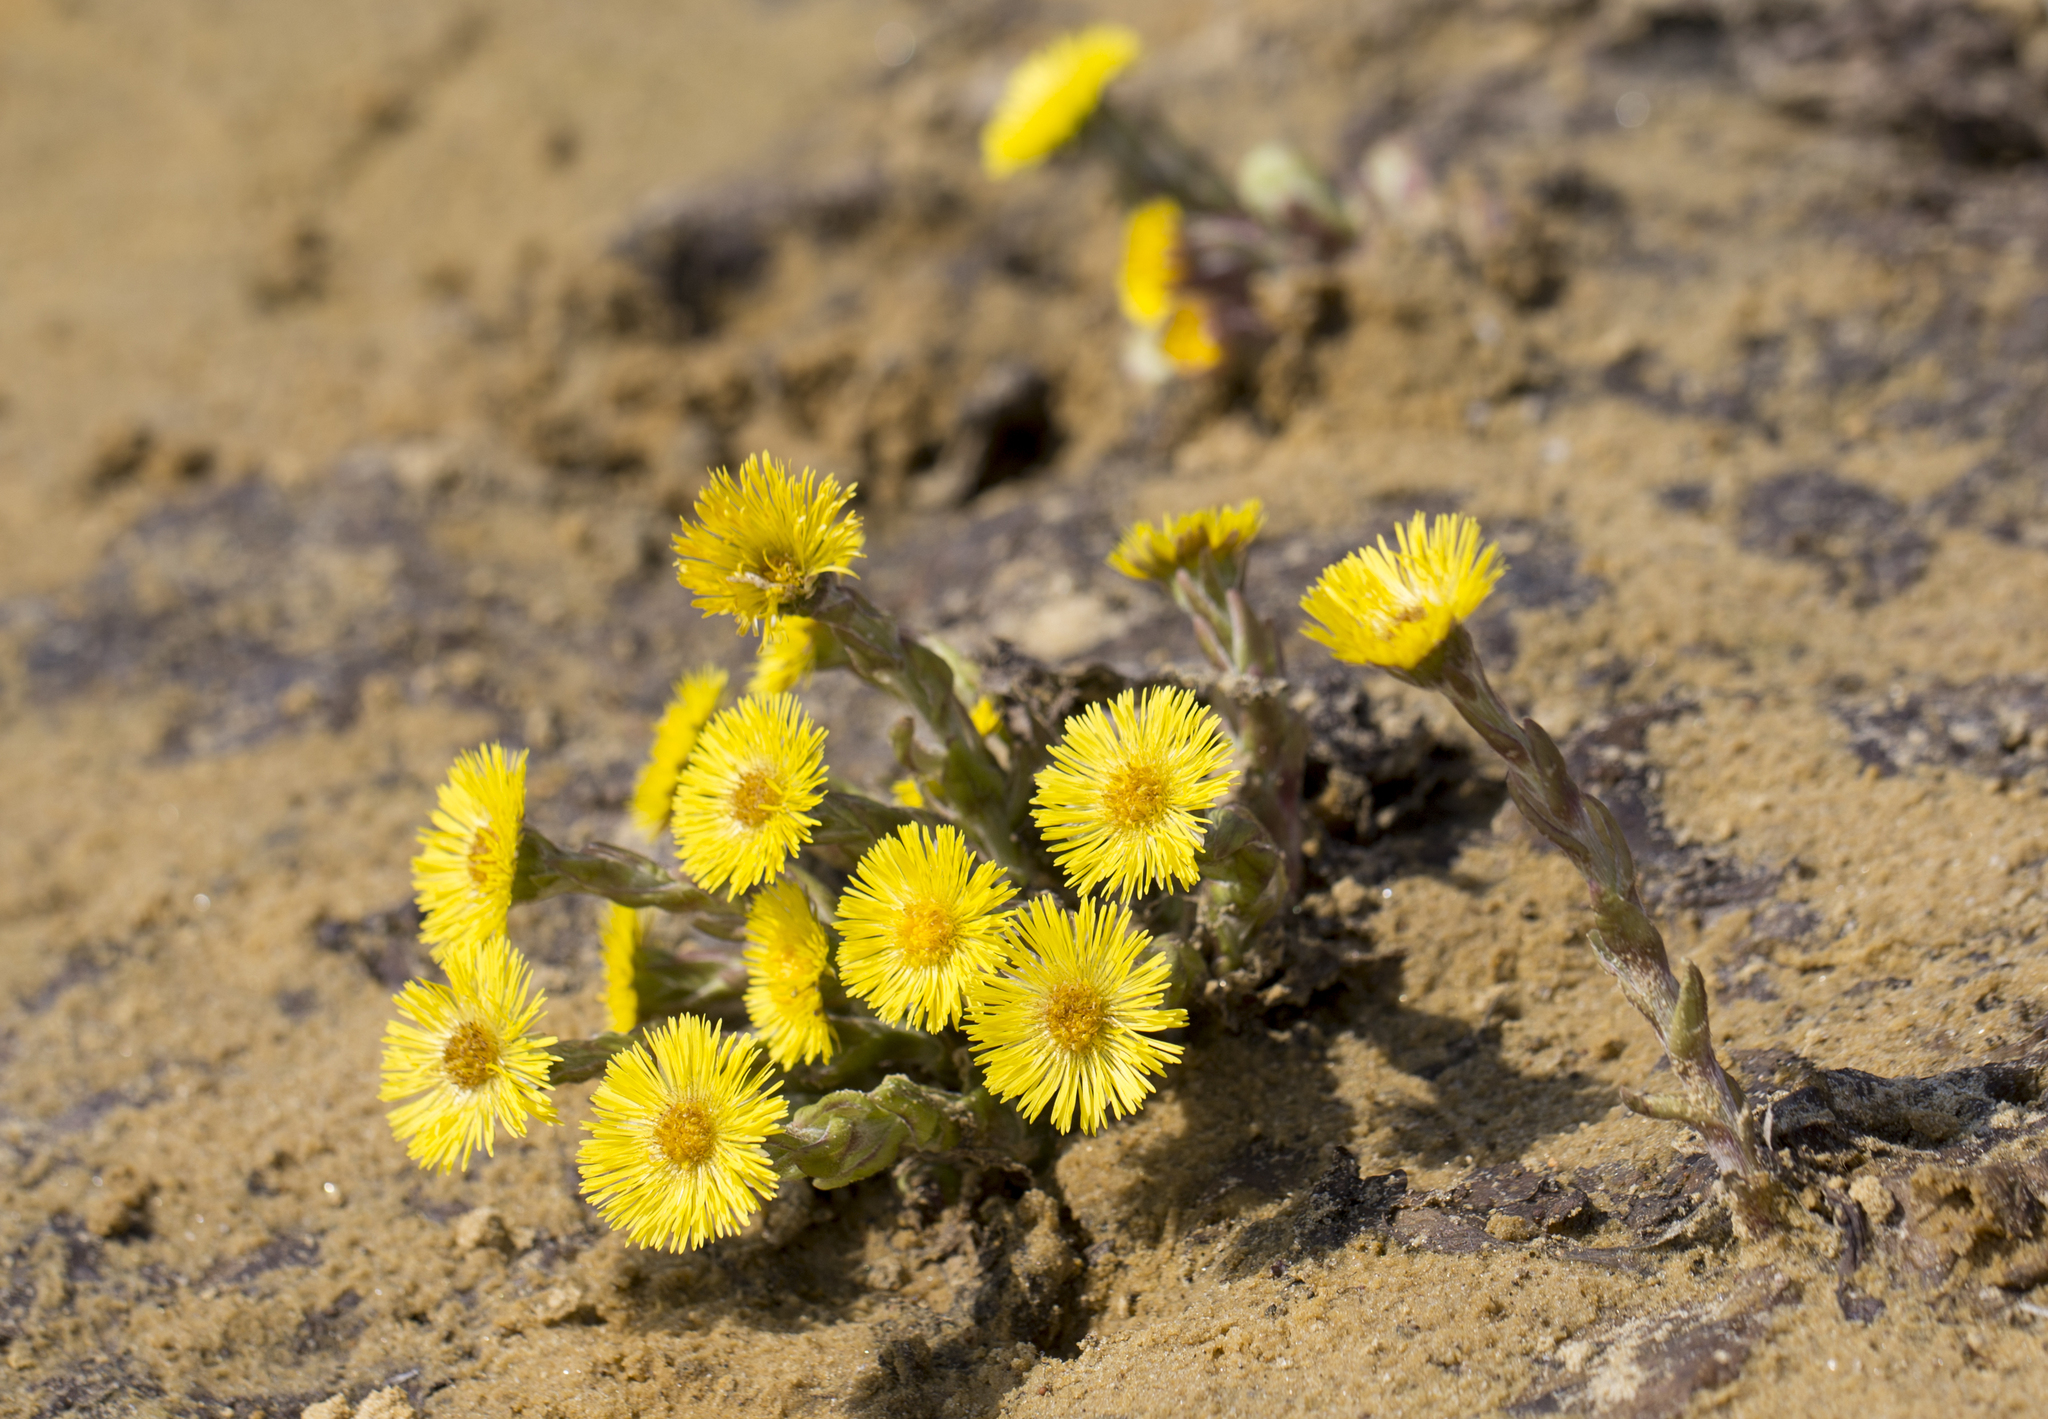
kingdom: Plantae
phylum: Tracheophyta
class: Magnoliopsida
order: Asterales
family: Asteraceae
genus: Tussilago
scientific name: Tussilago farfara
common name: Coltsfoot
